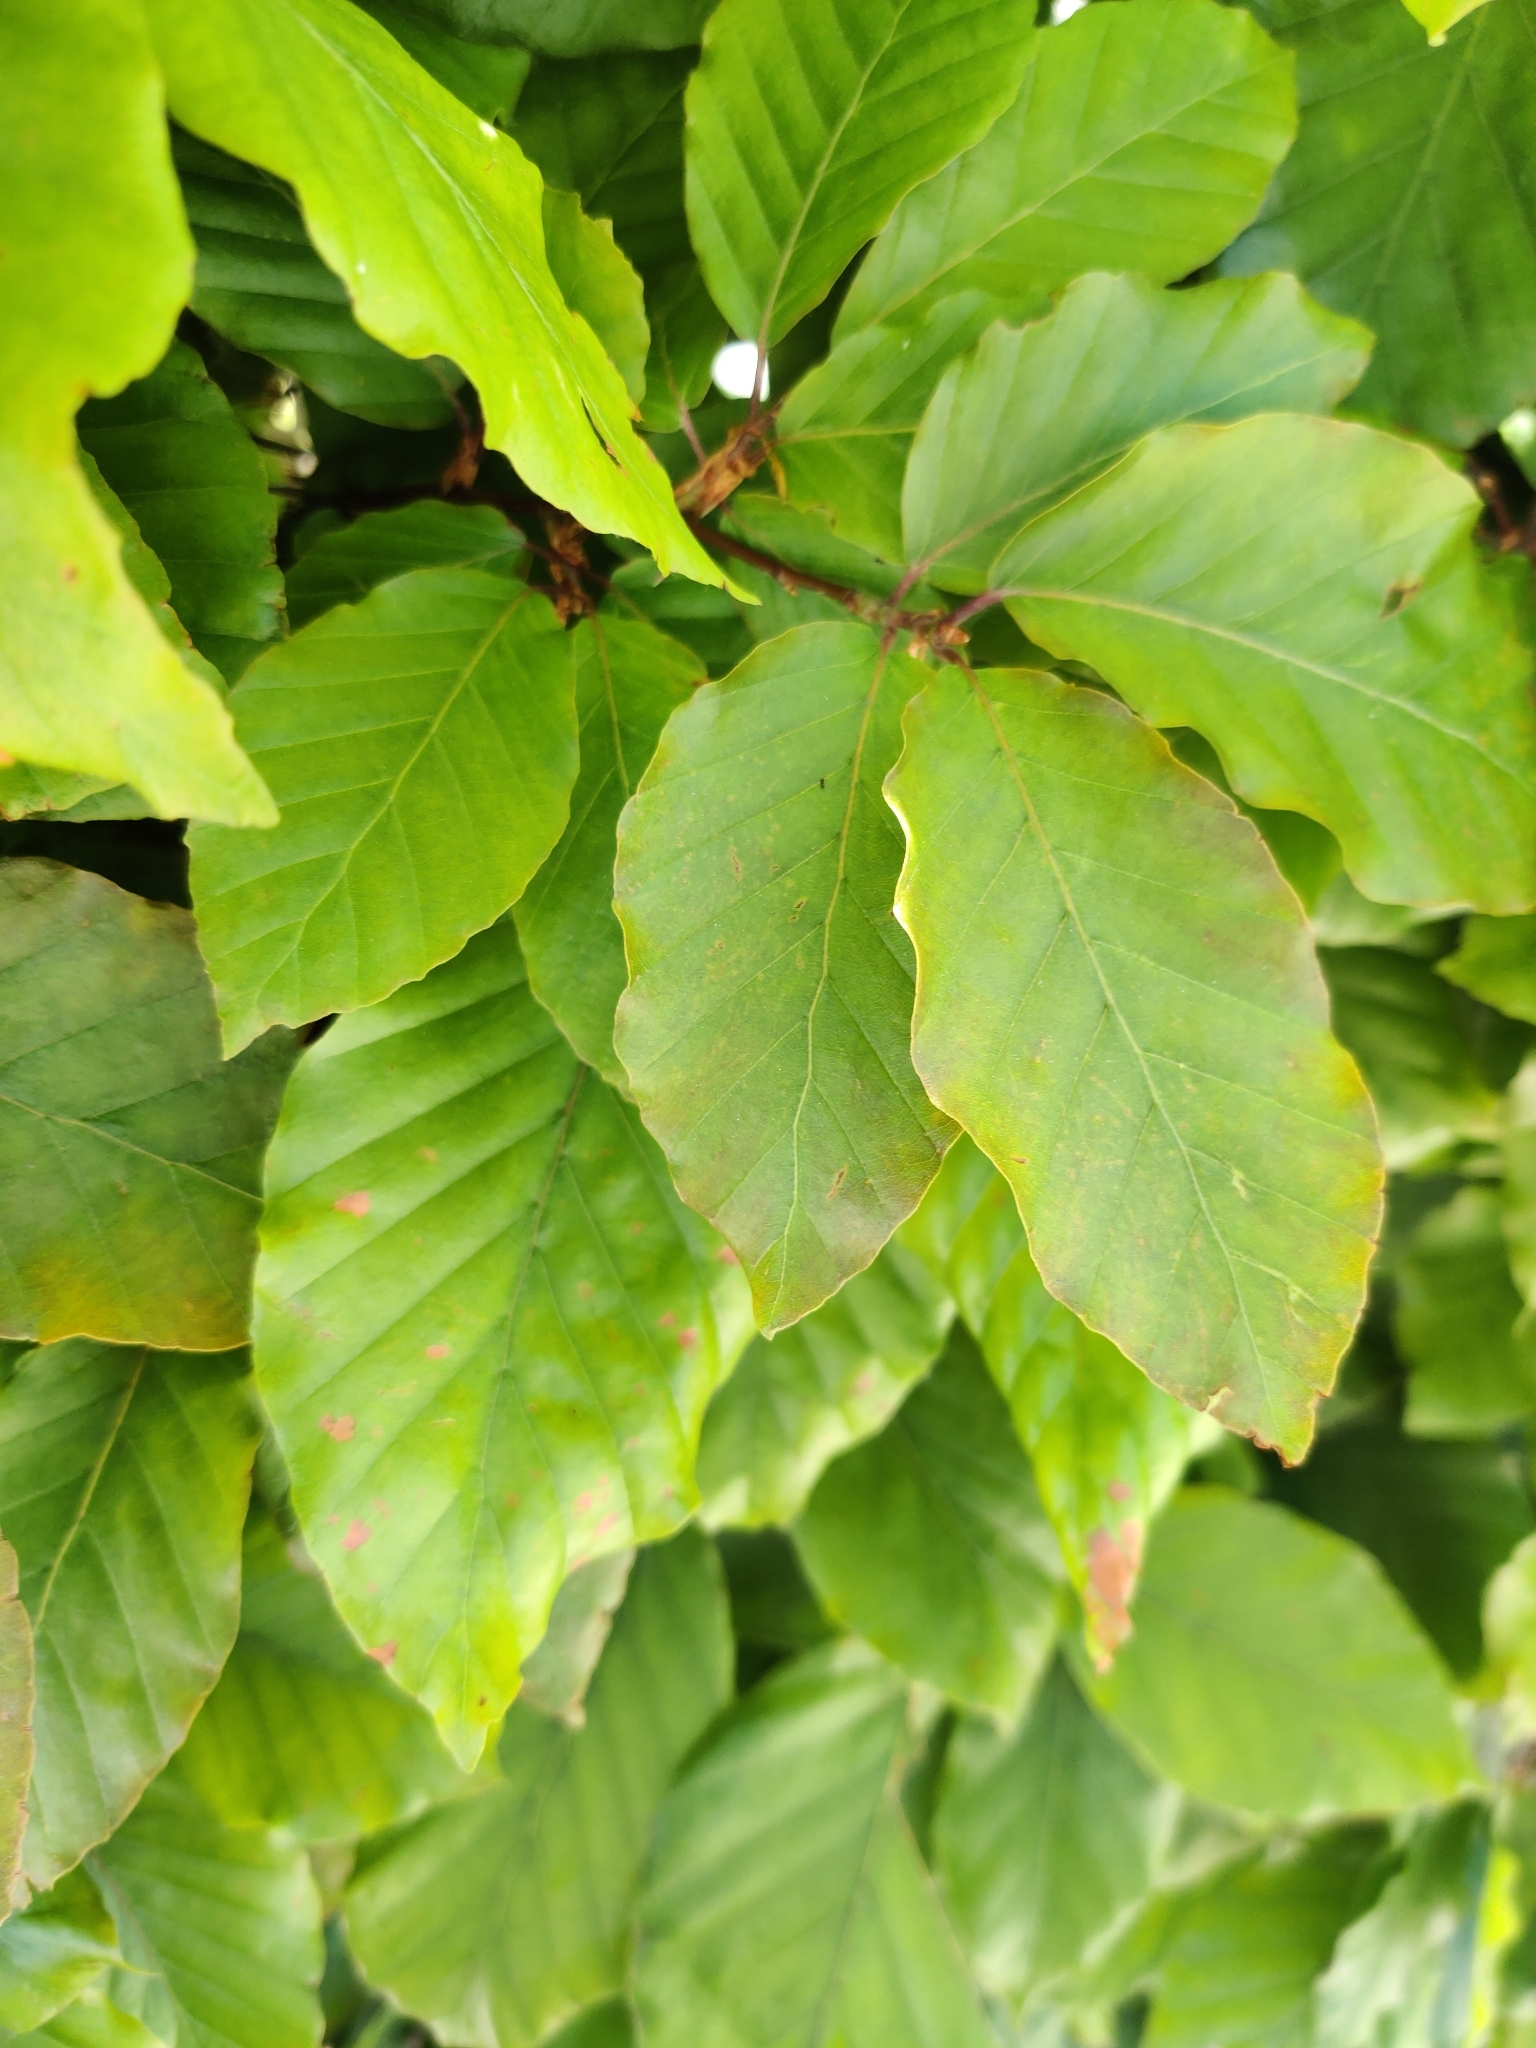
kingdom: Plantae
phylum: Tracheophyta
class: Magnoliopsida
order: Fagales
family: Fagaceae
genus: Fagus
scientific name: Fagus sylvatica
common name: Beech
